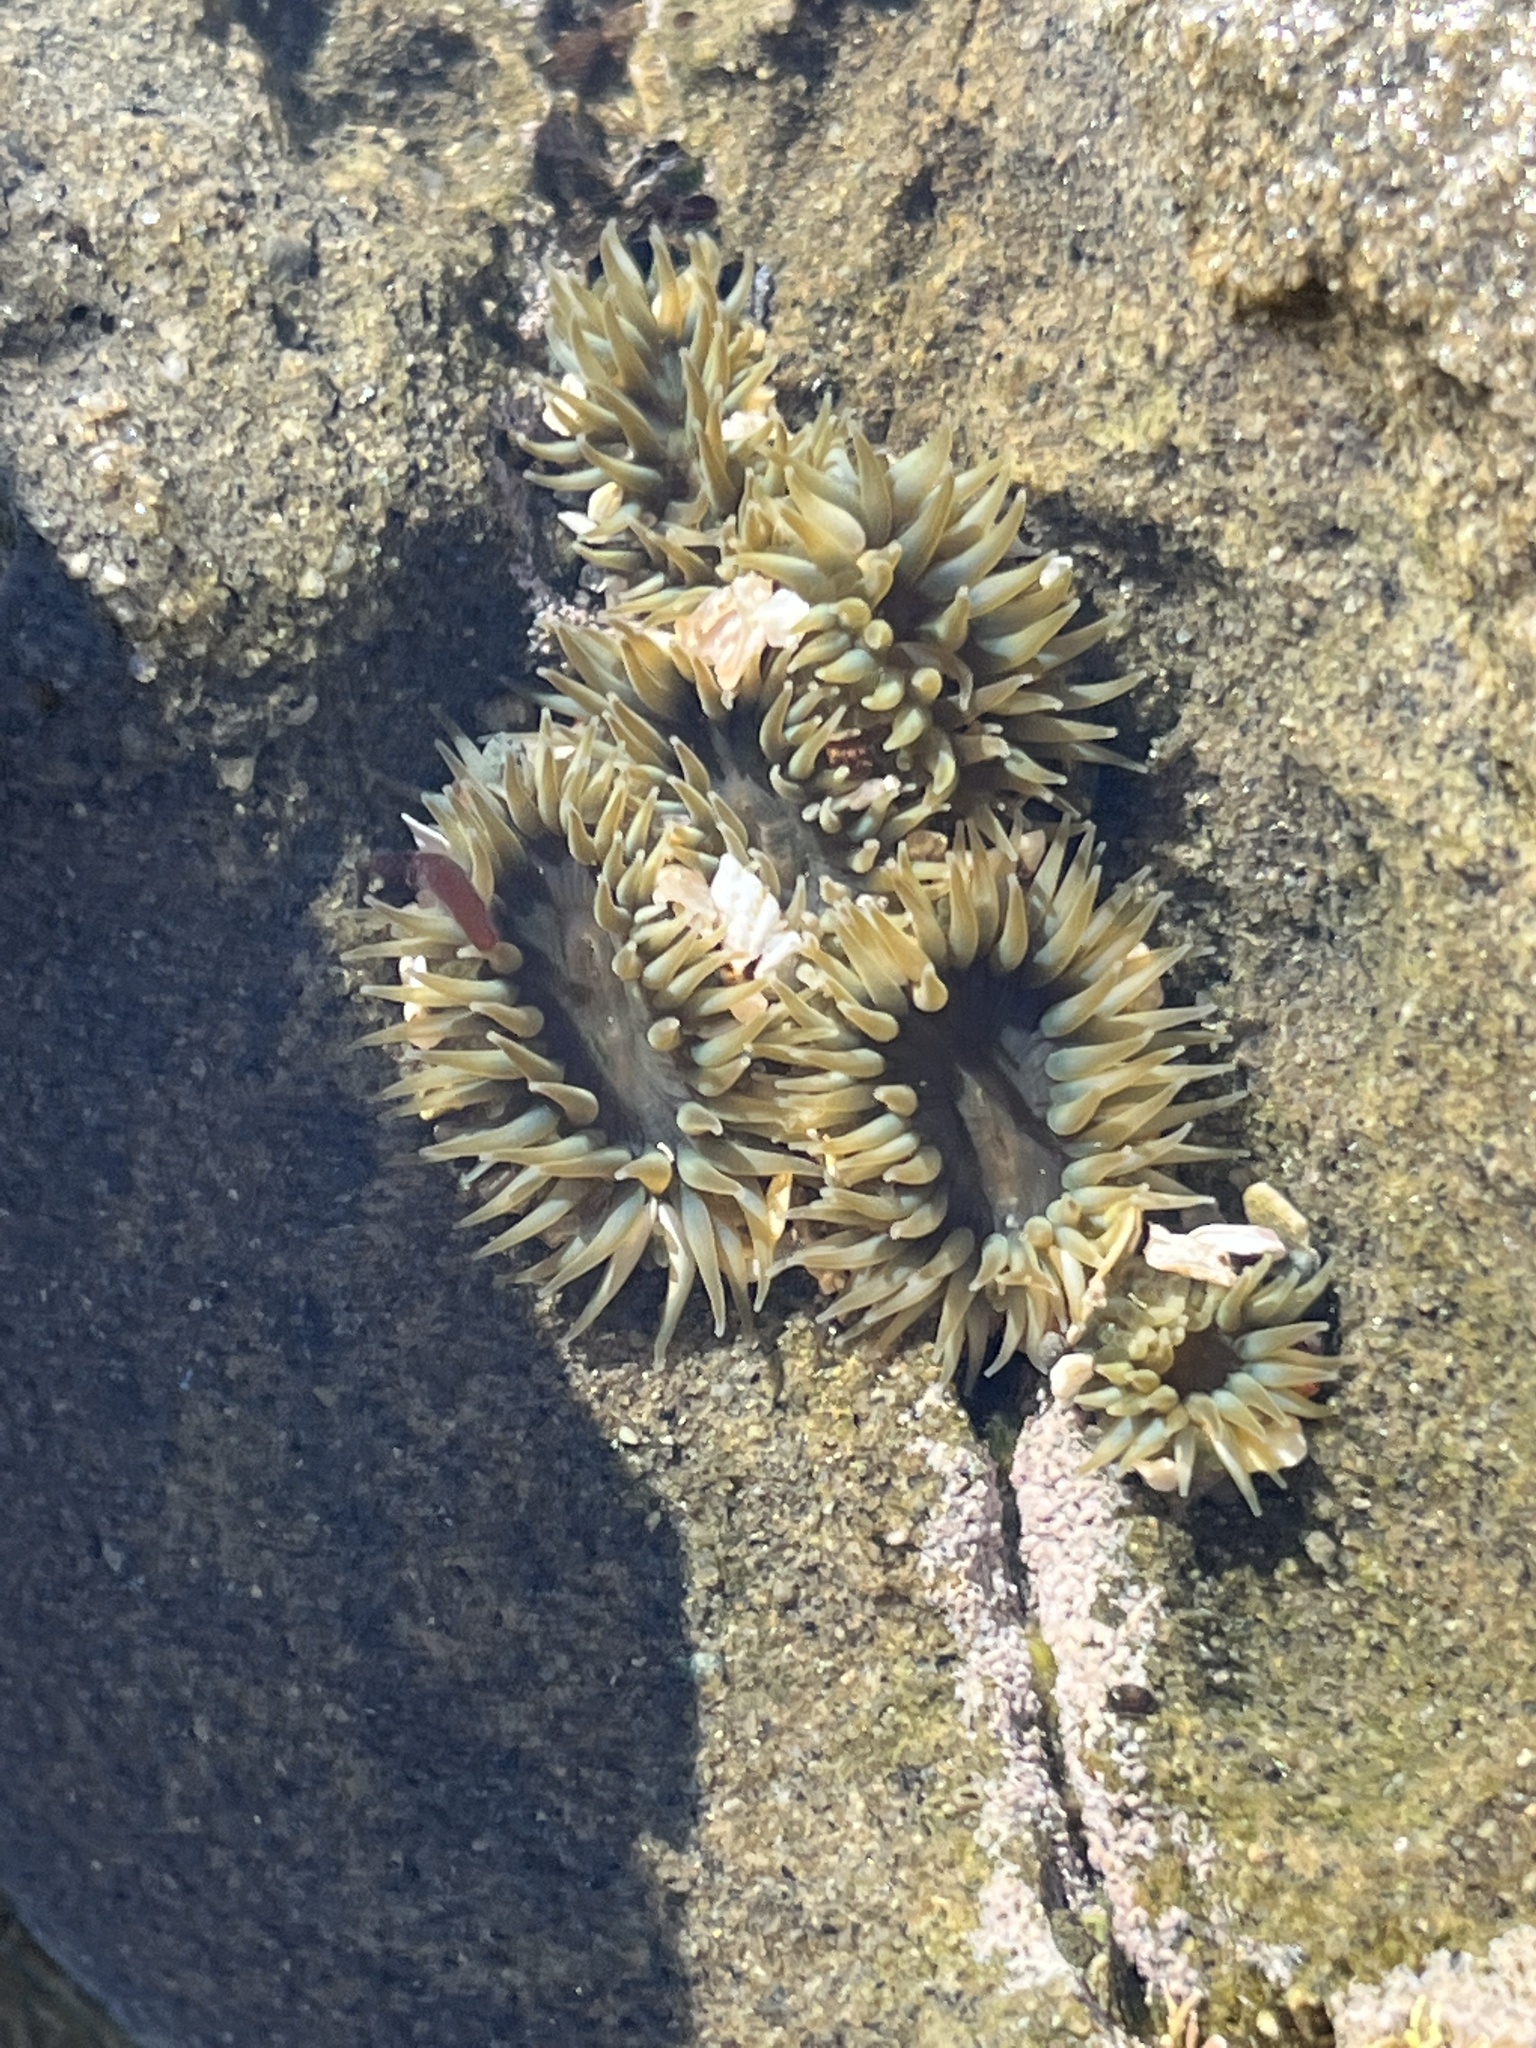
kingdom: Animalia
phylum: Cnidaria
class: Anthozoa
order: Actiniaria
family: Actiniidae
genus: Anthopleura
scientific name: Anthopleura elegantissima
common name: Clonal anemone
